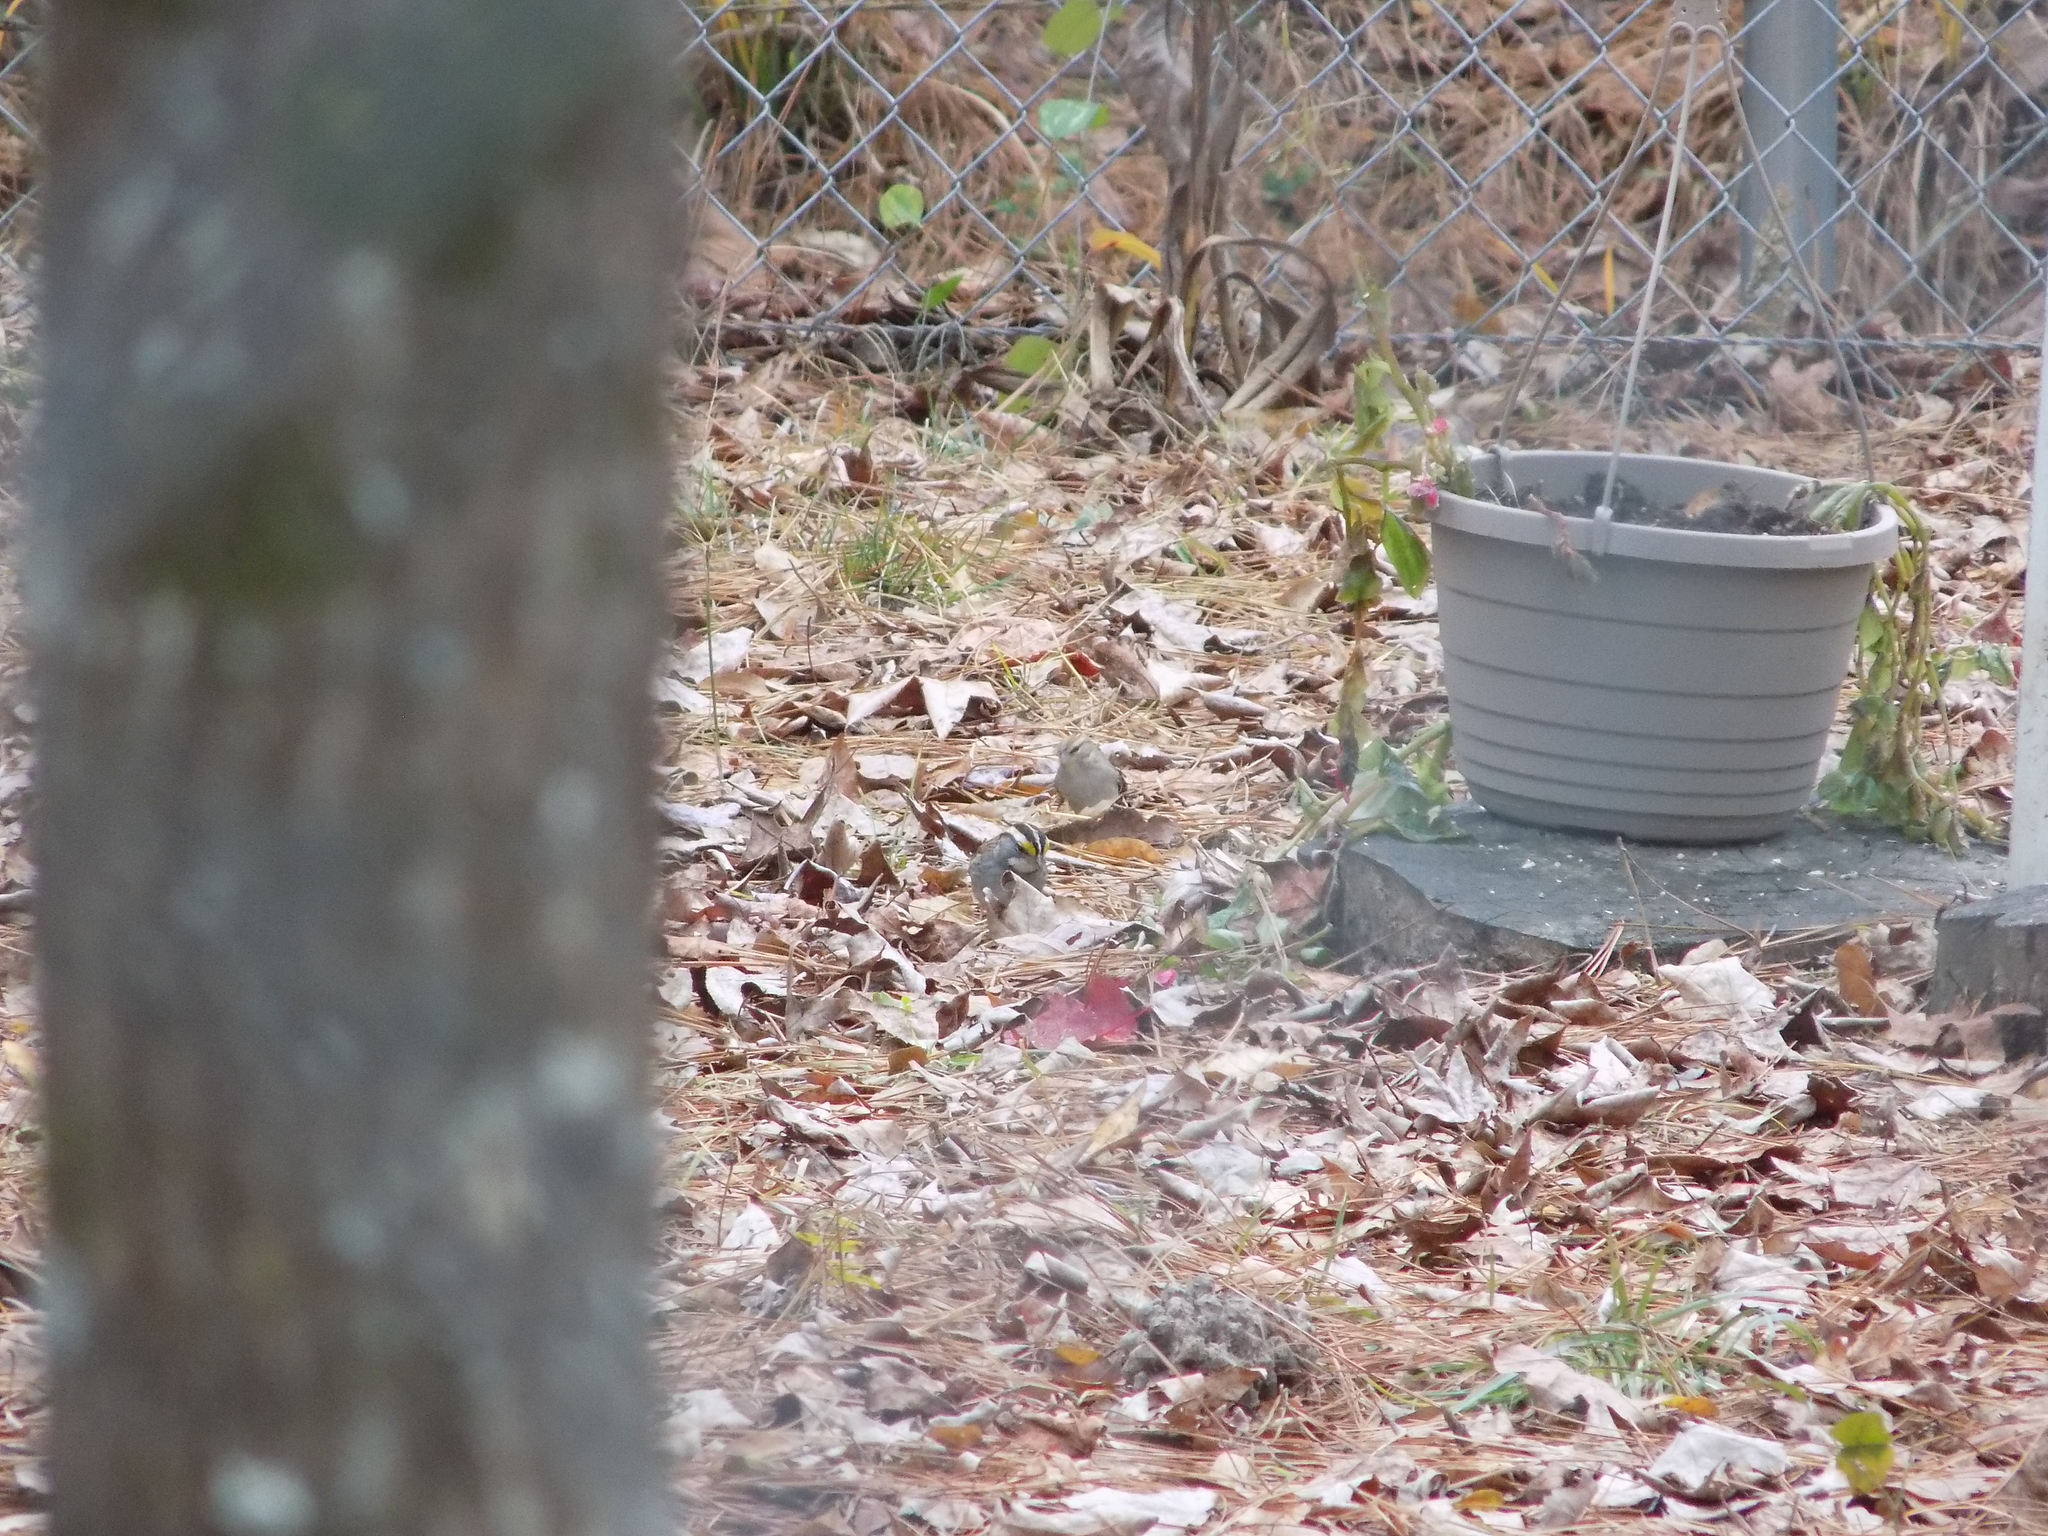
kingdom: Animalia
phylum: Chordata
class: Aves
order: Passeriformes
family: Passerellidae
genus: Zonotrichia
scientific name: Zonotrichia albicollis
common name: White-throated sparrow
